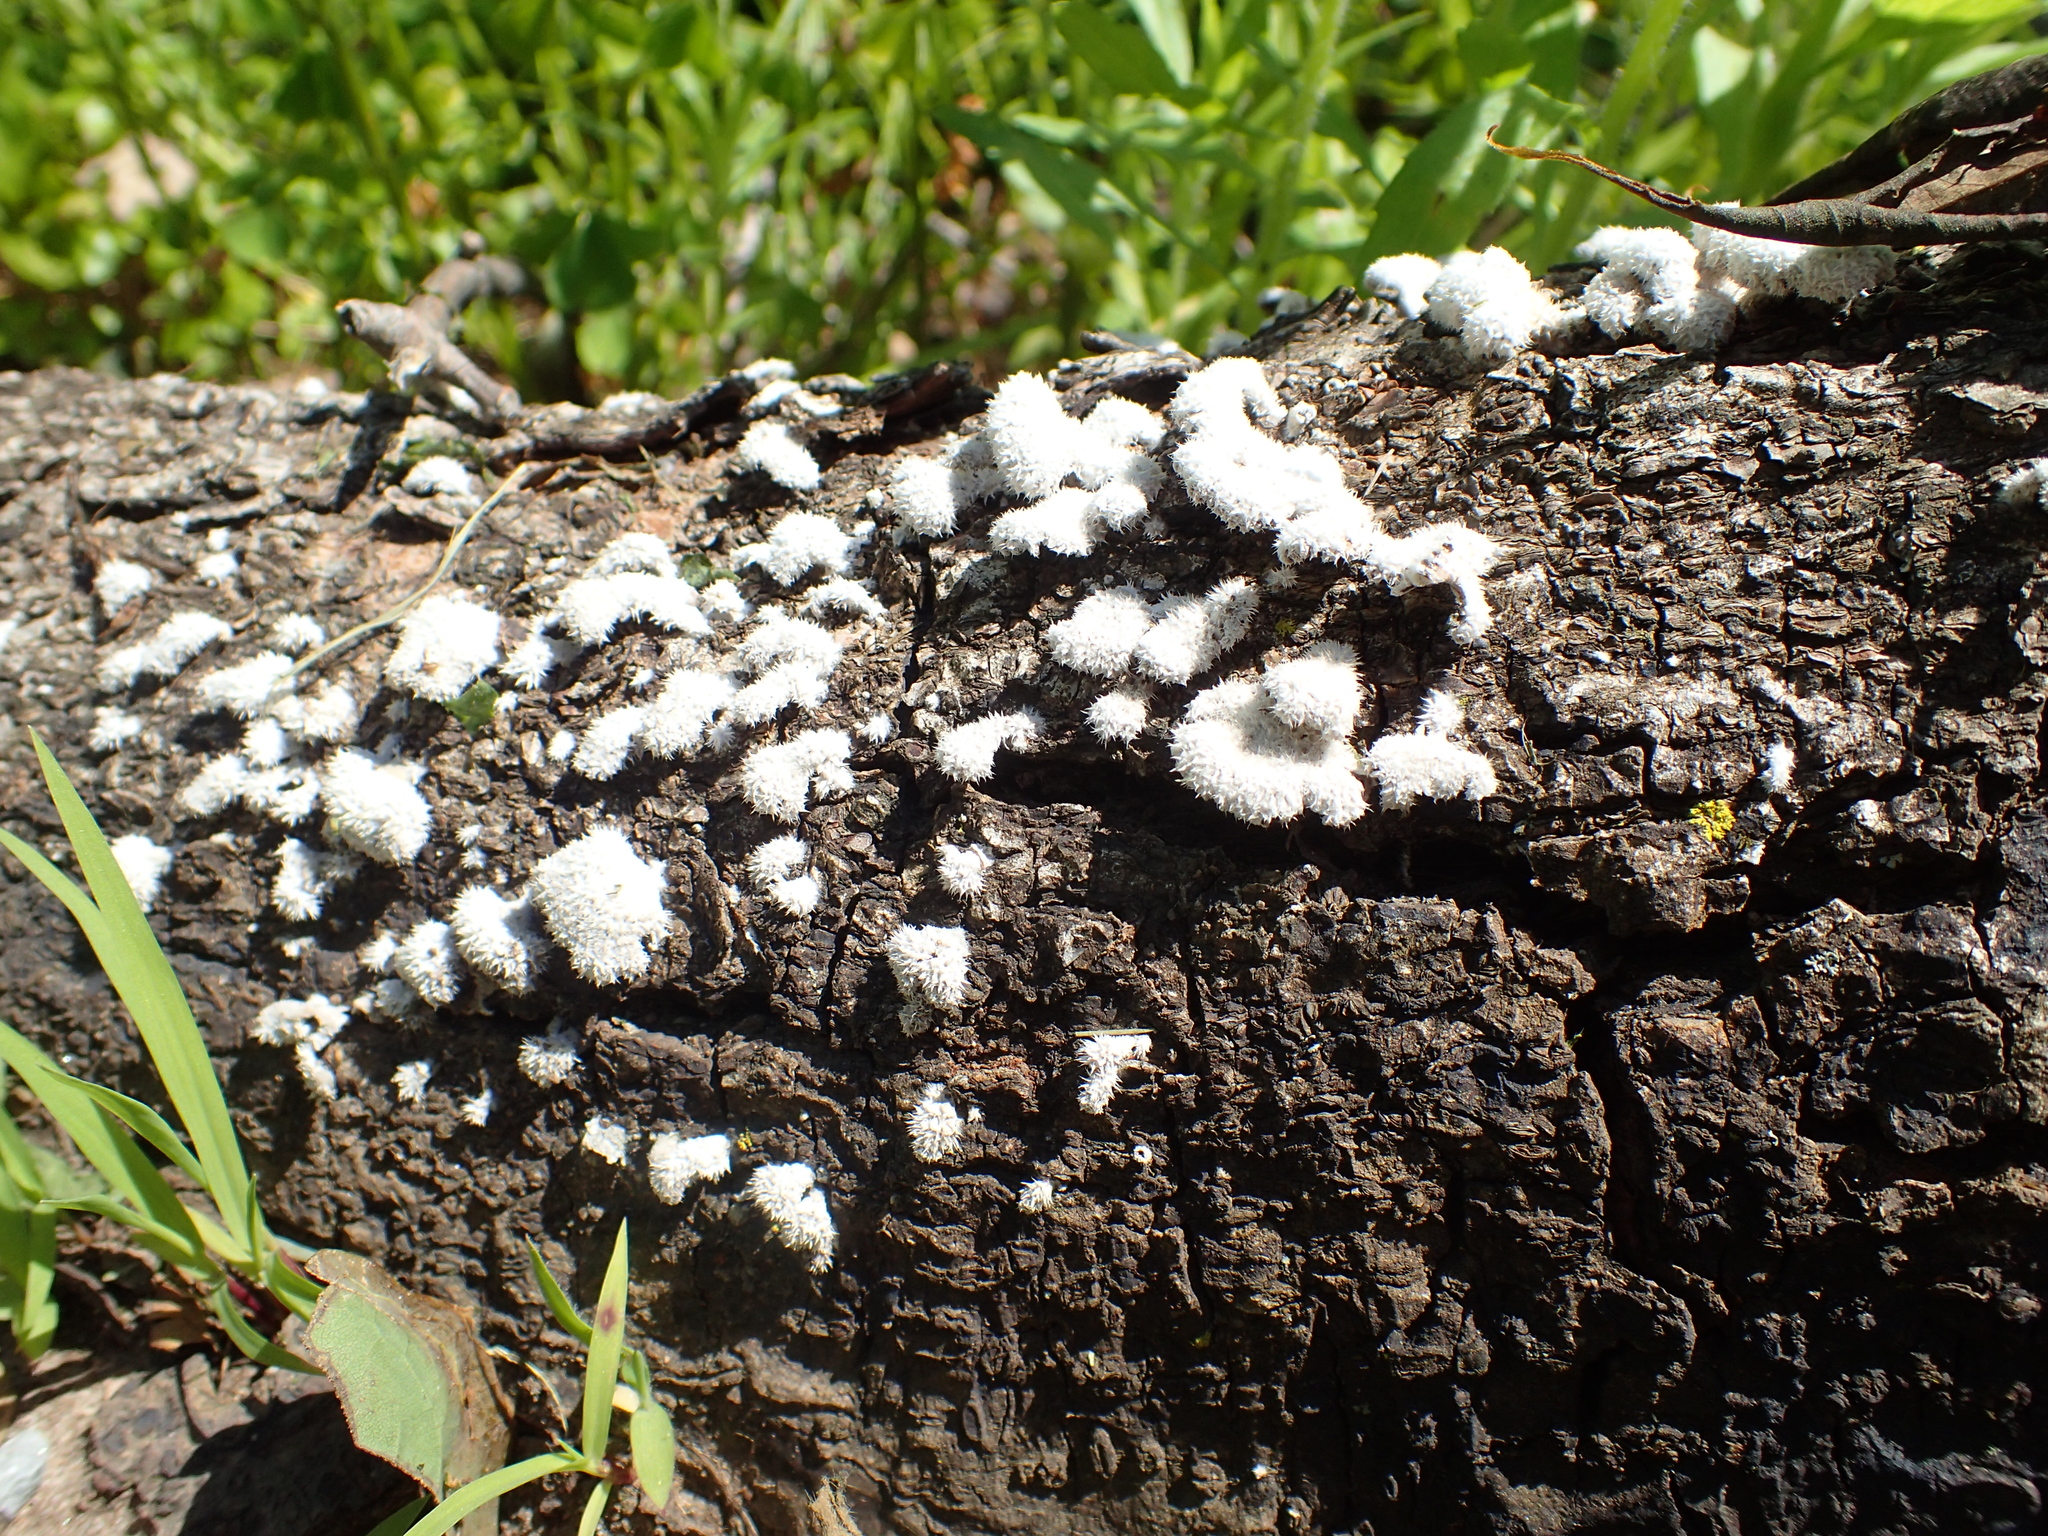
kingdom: Fungi
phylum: Basidiomycota
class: Agaricomycetes
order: Agaricales
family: Schizophyllaceae
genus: Schizophyllum
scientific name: Schizophyllum commune
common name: Common porecrust
